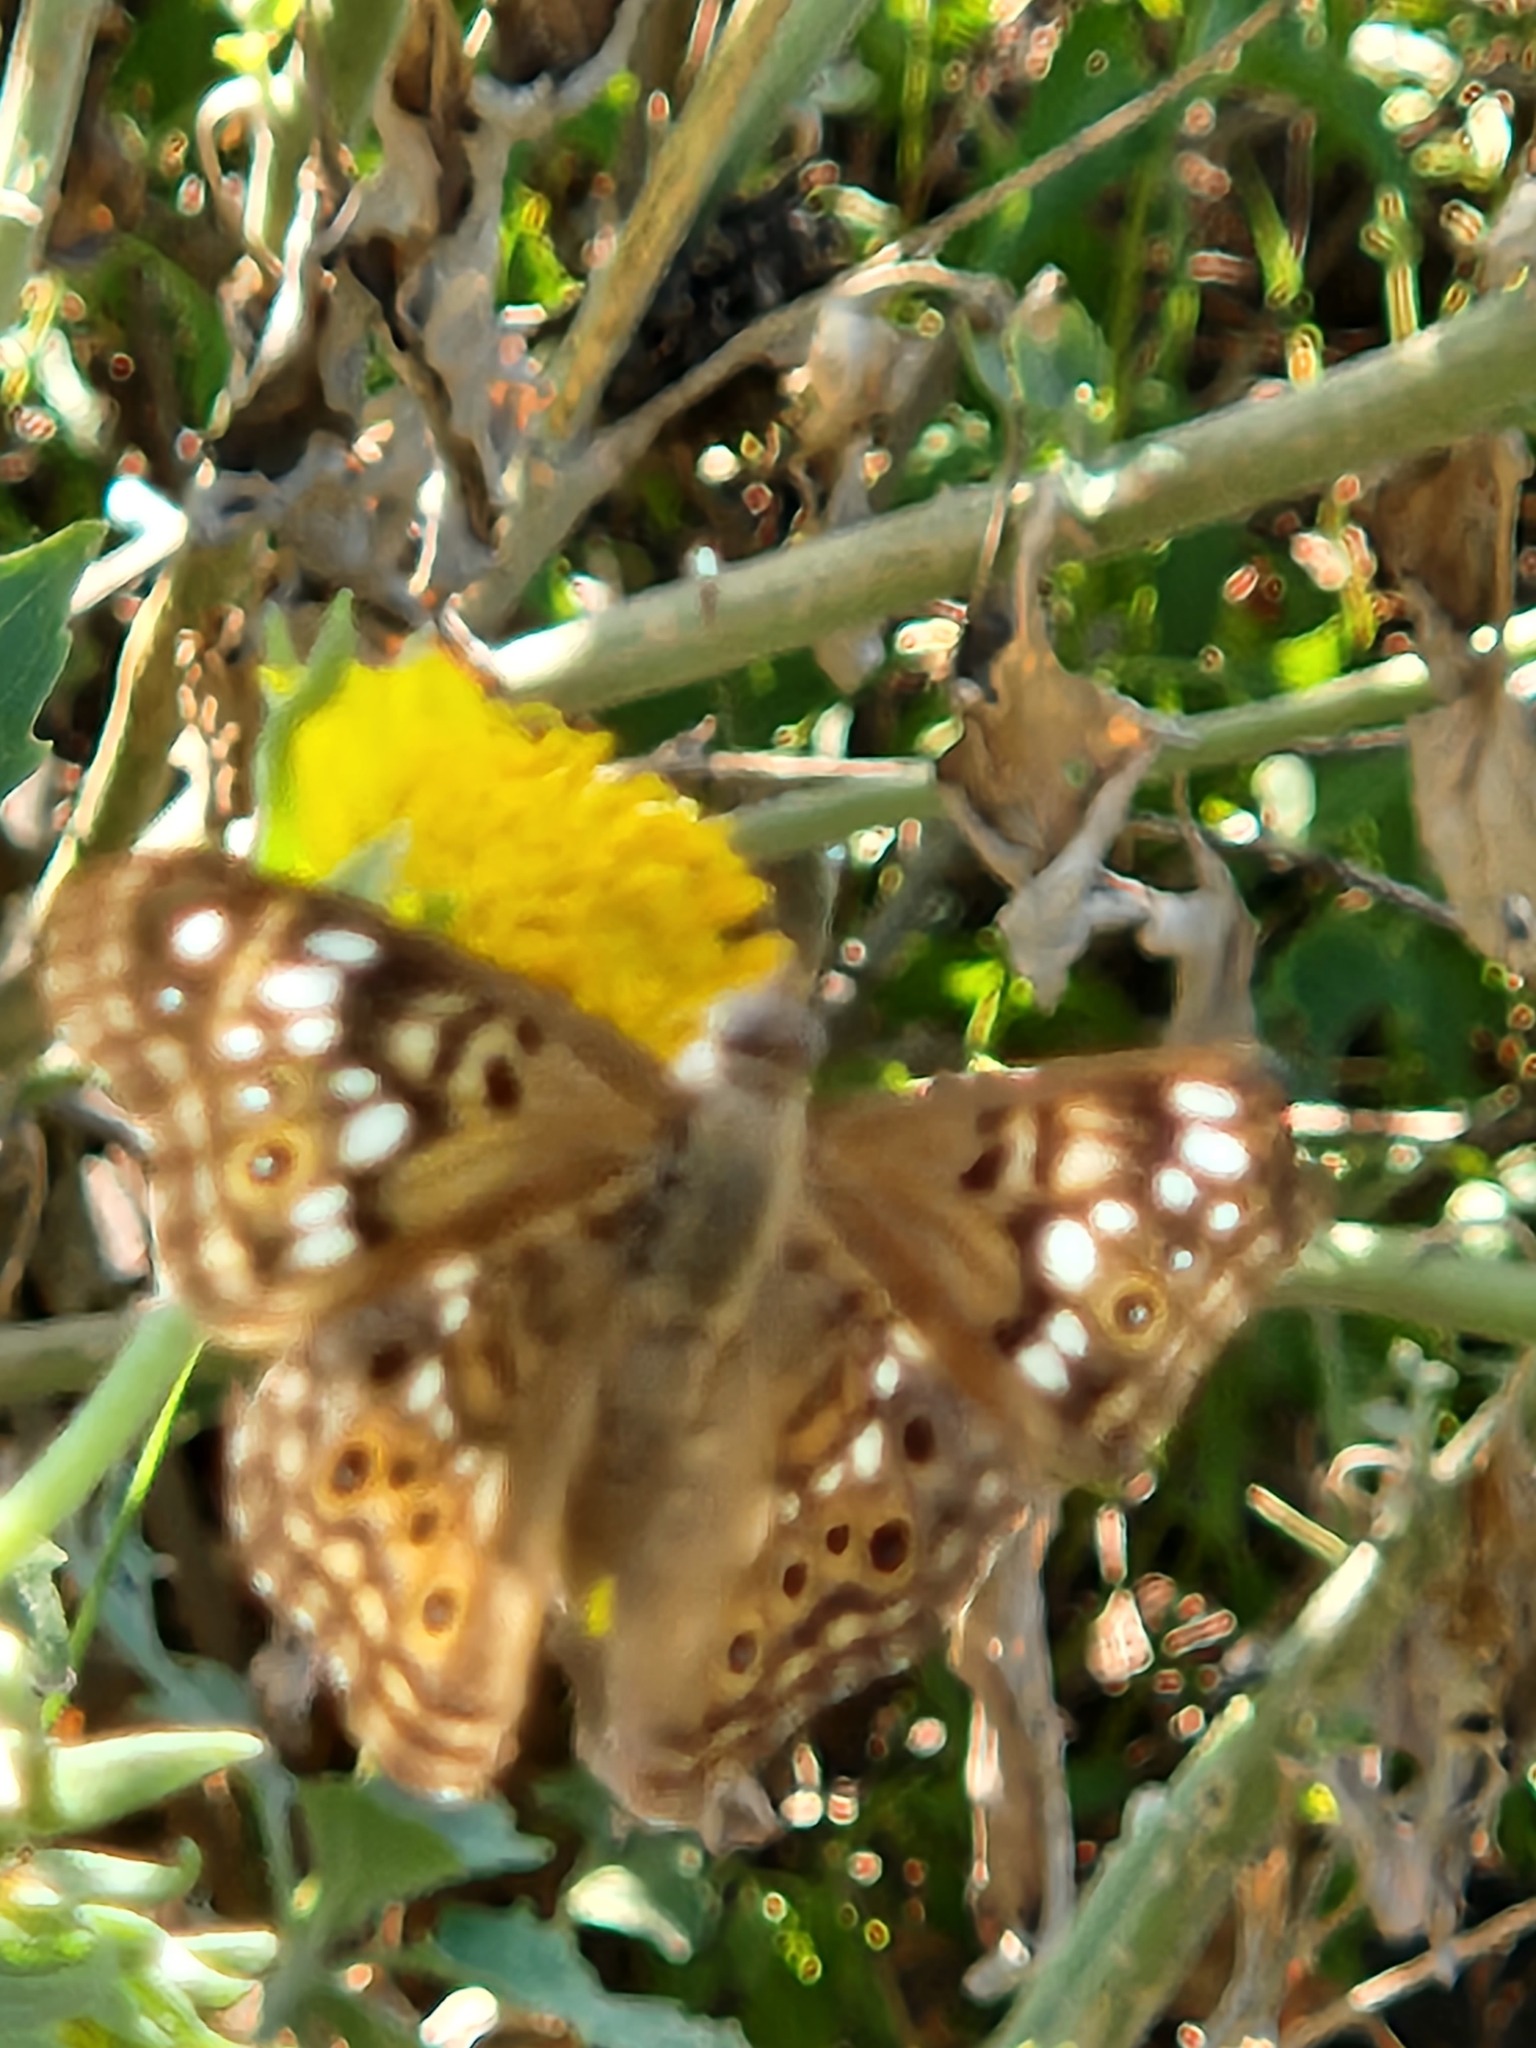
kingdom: Animalia
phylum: Arthropoda
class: Insecta
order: Lepidoptera
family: Nymphalidae
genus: Asterocampa
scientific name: Asterocampa celtis
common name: Hackberry emperor
